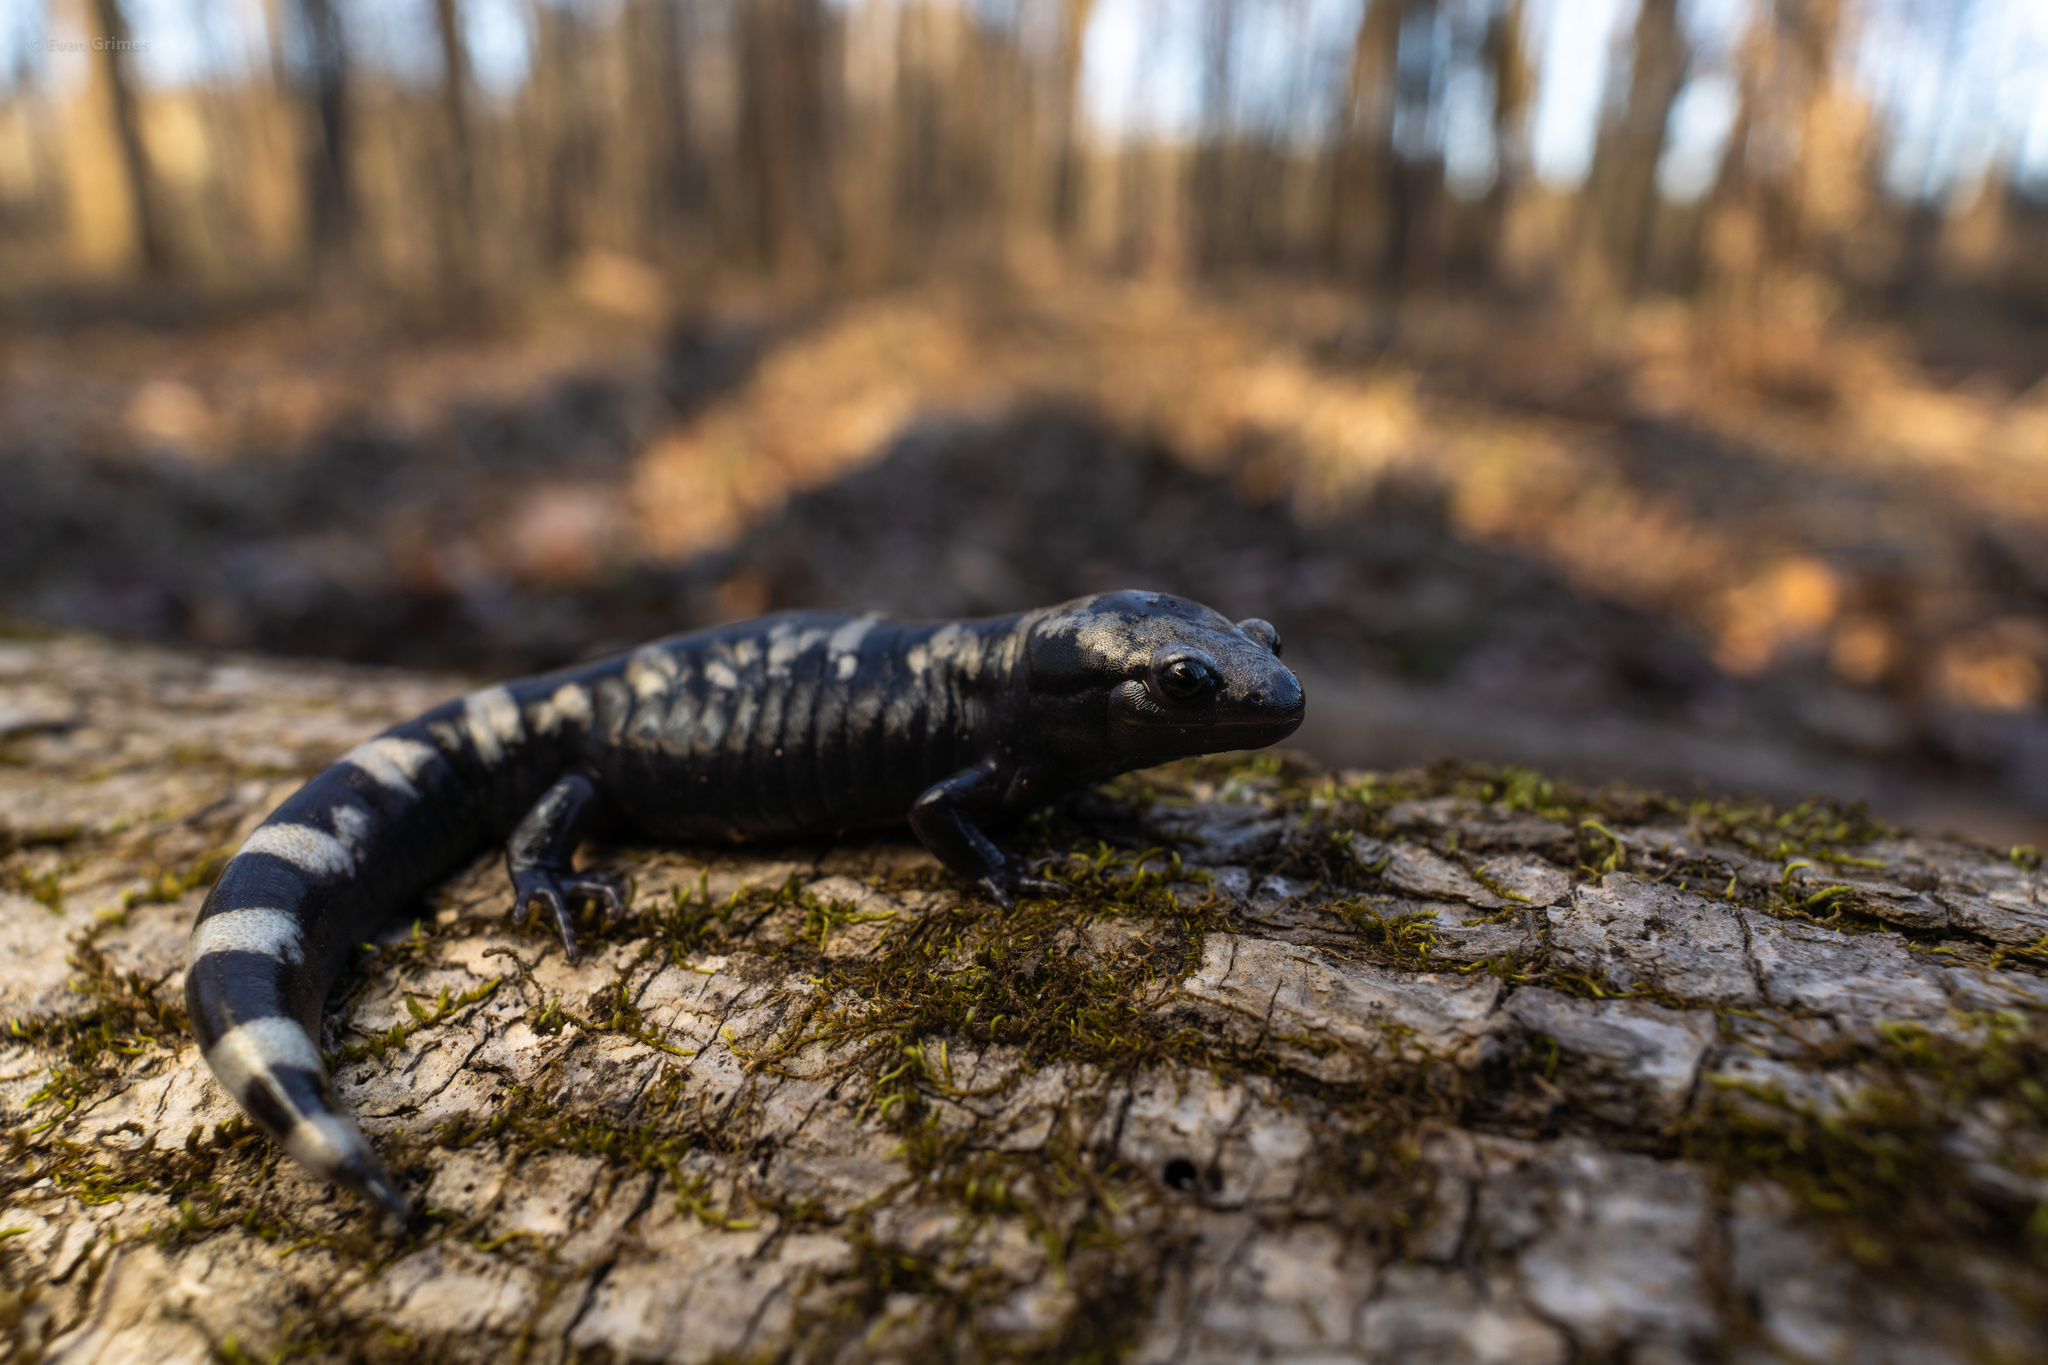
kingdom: Animalia
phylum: Chordata
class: Amphibia
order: Caudata
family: Ambystomatidae
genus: Ambystoma
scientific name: Ambystoma opacum
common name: Marbled salamander
